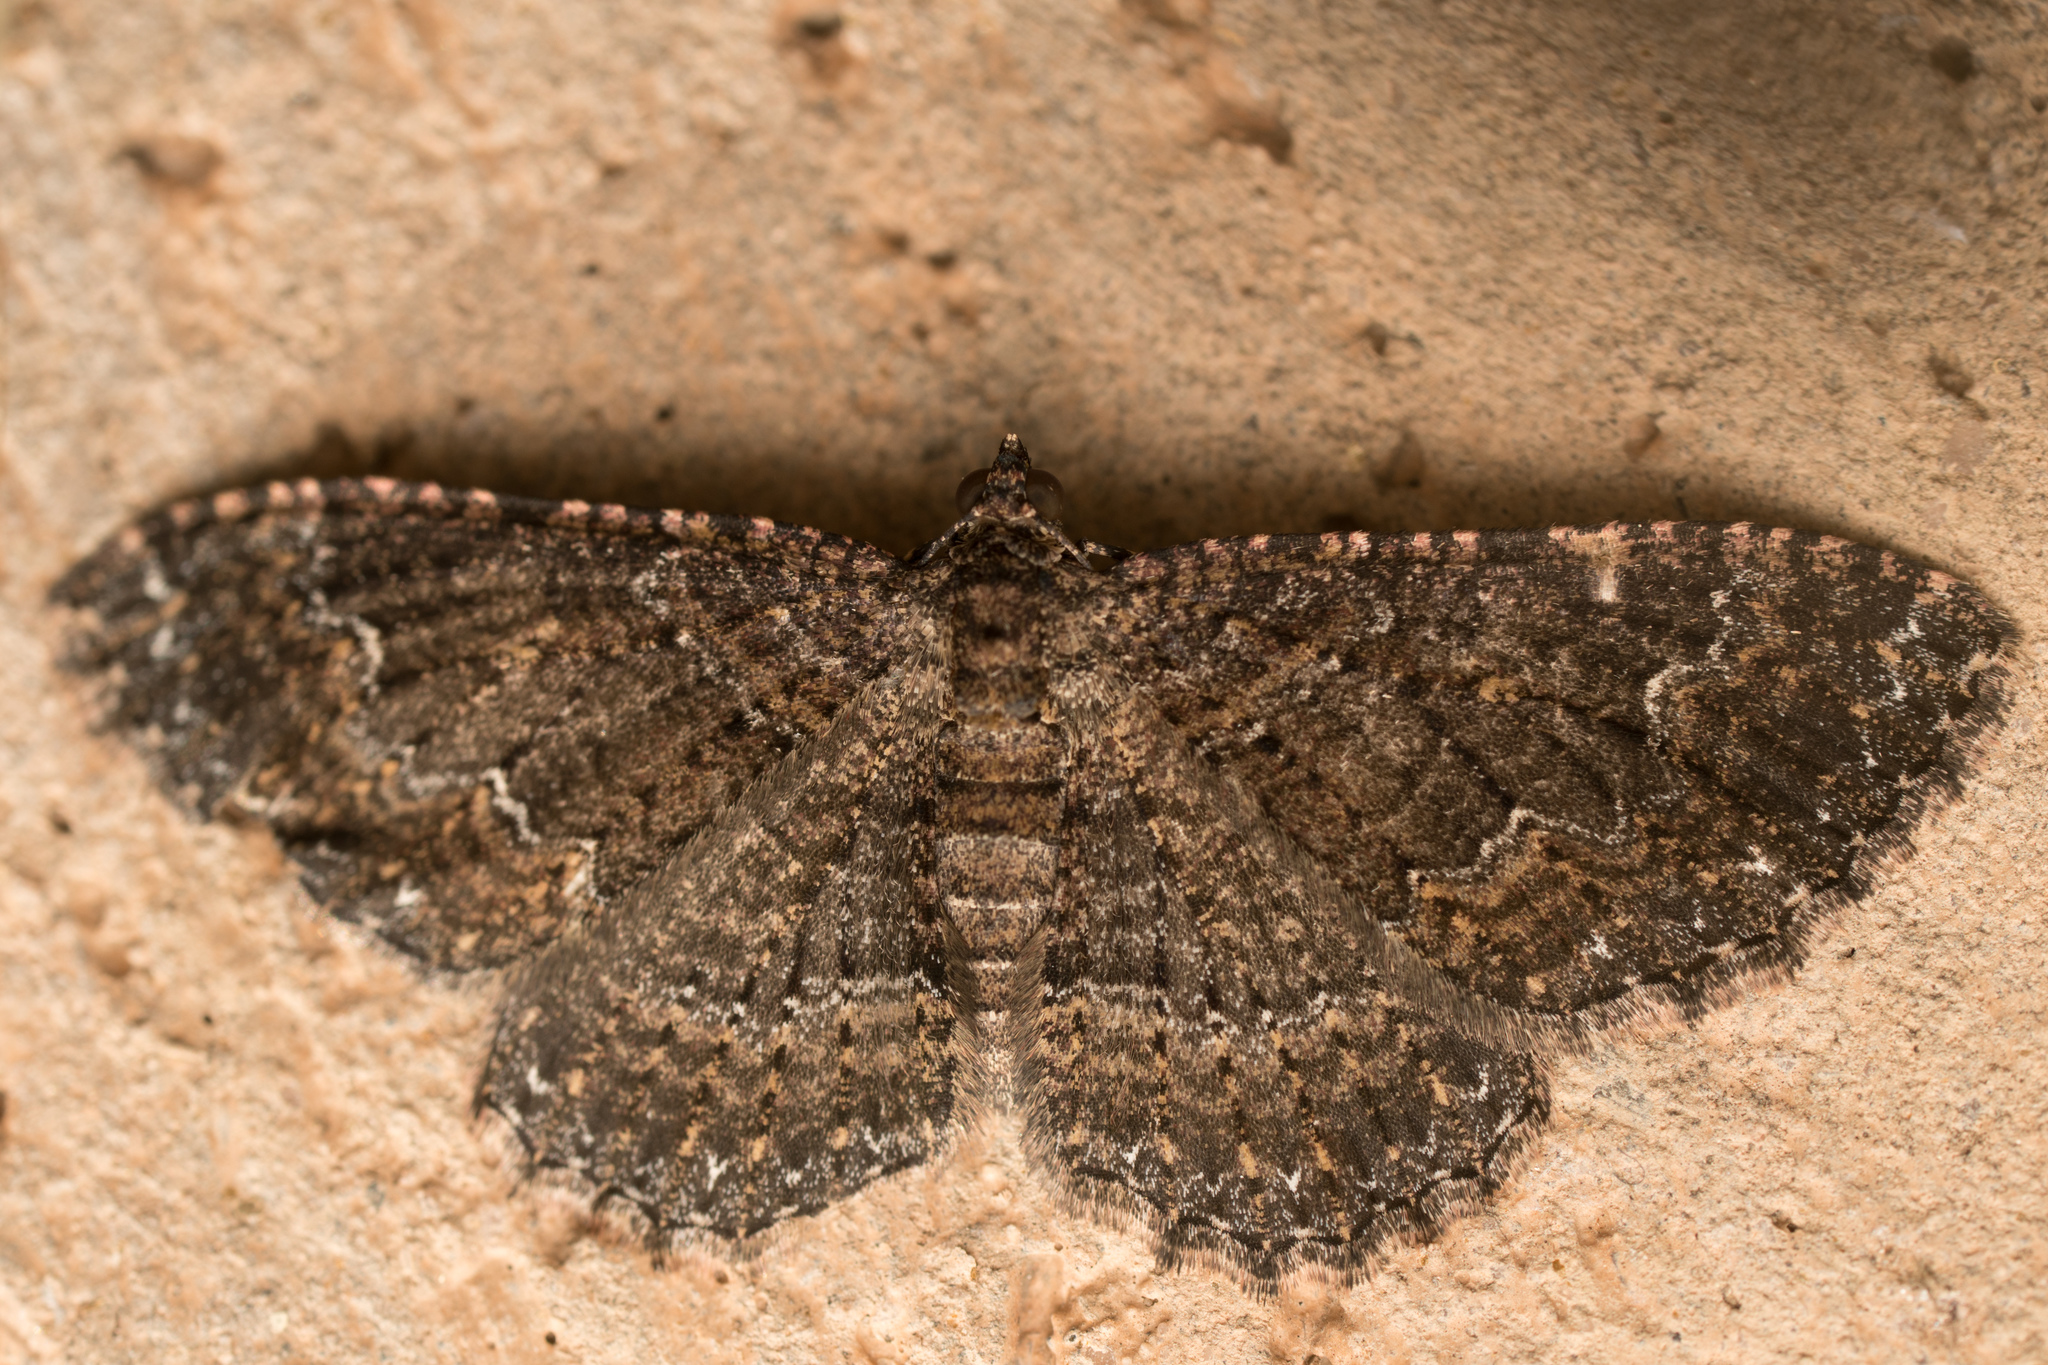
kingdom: Animalia
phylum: Arthropoda
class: Insecta
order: Lepidoptera
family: Geometridae
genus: Disclisioprocta
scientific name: Disclisioprocta stellata
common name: Somber carpet
